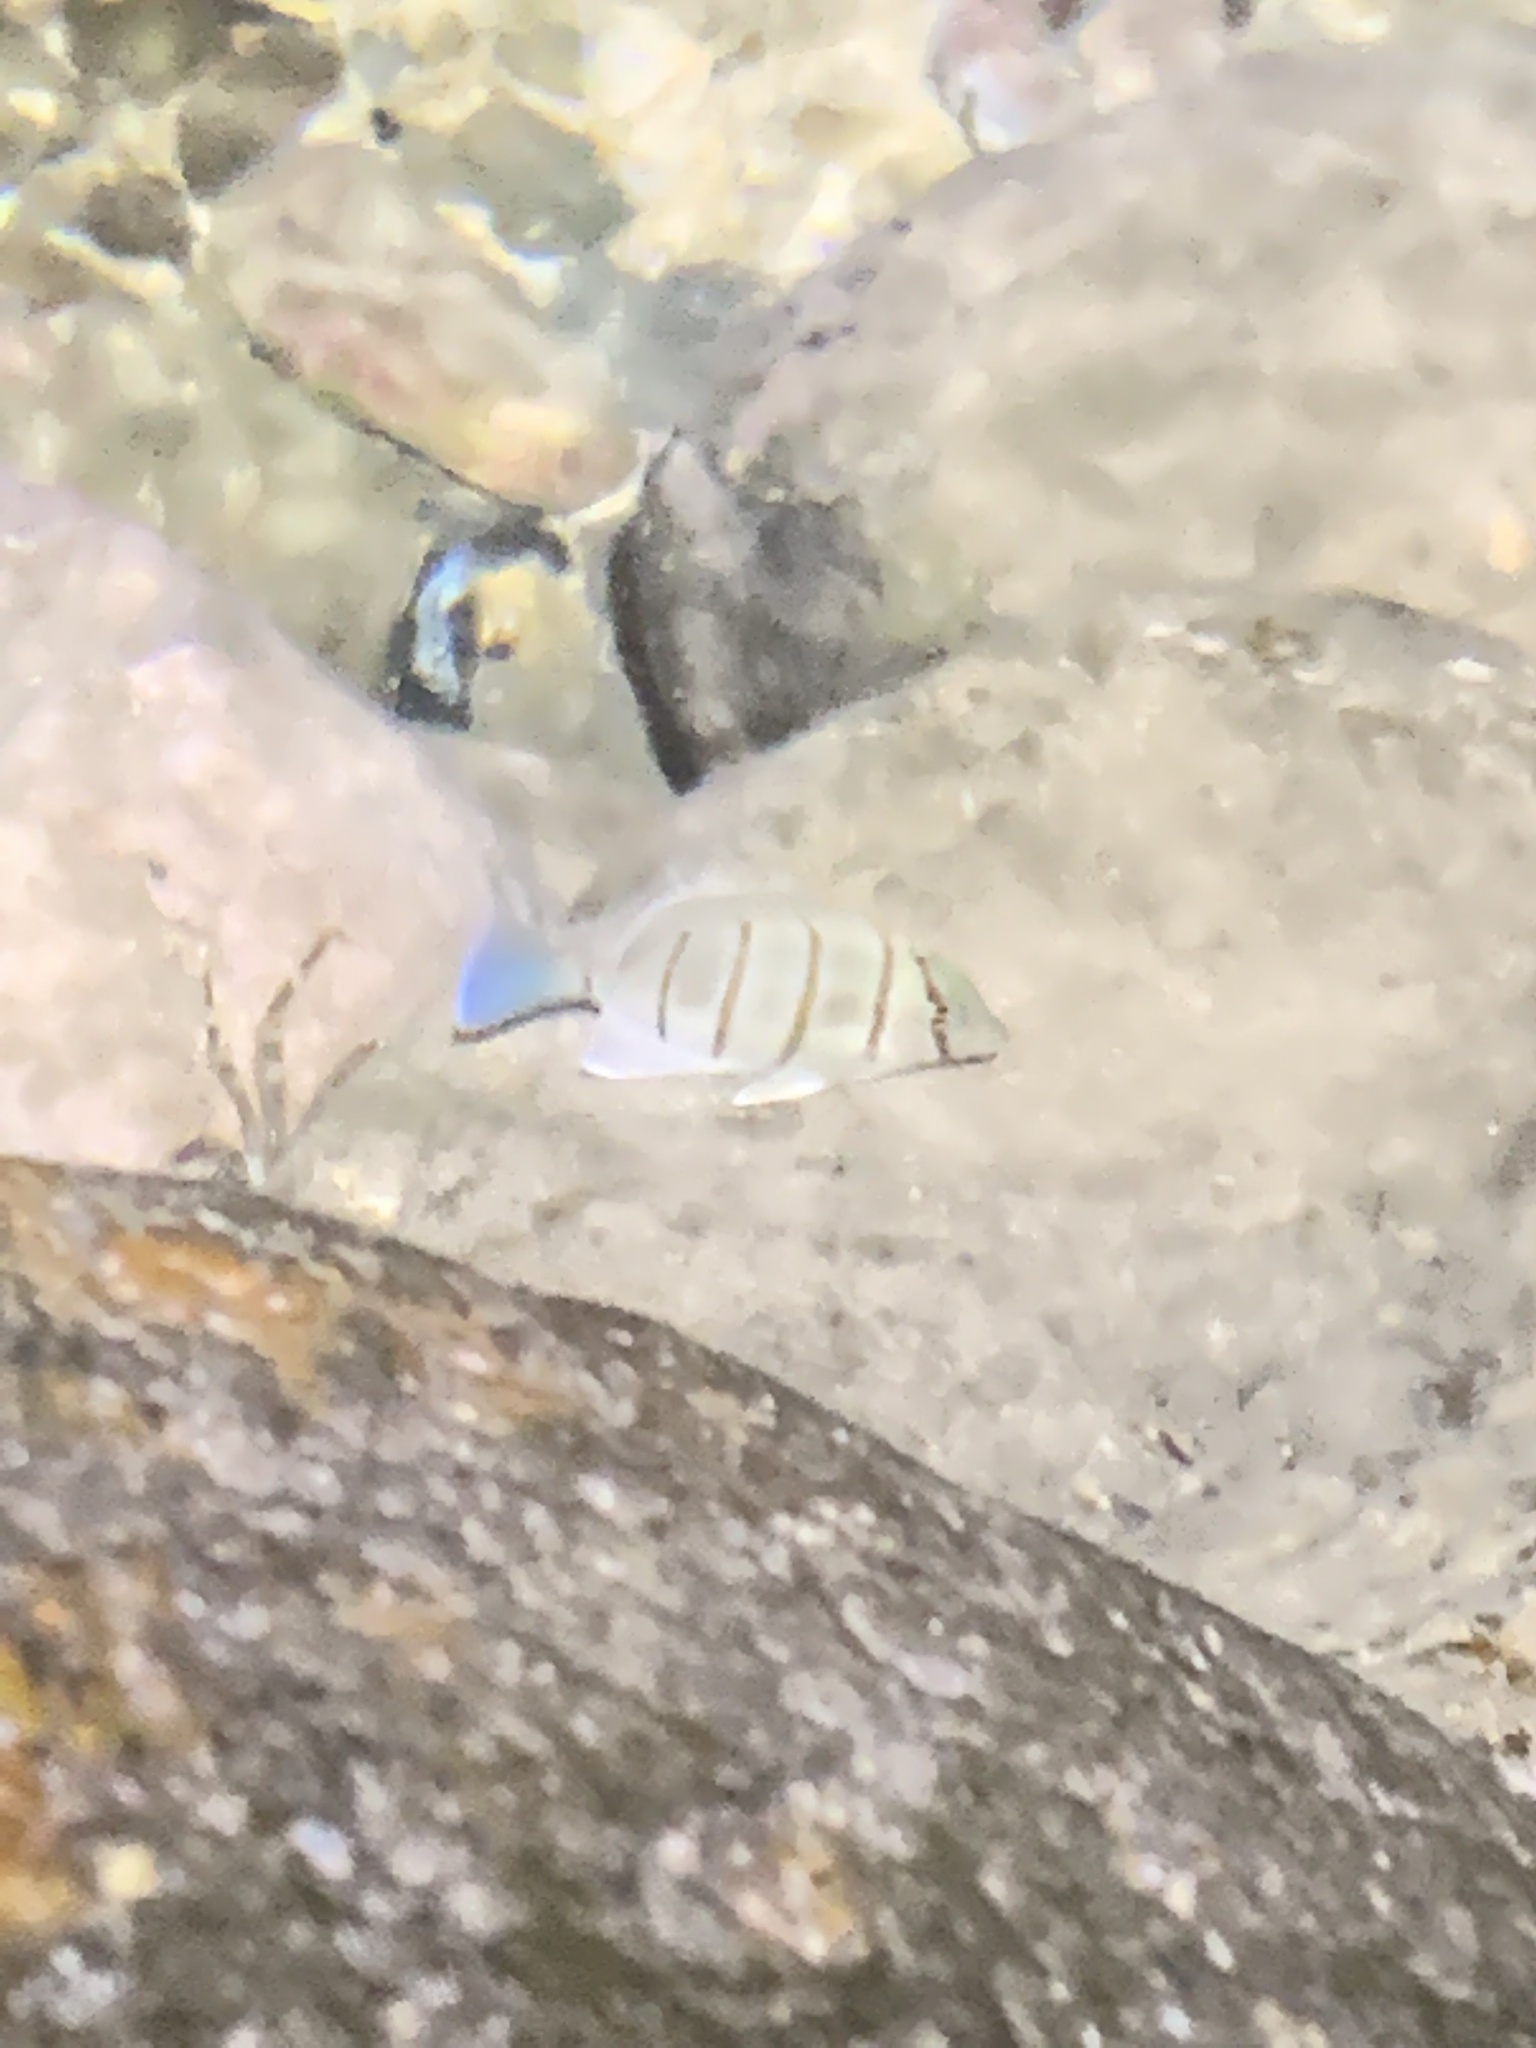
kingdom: Animalia
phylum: Chordata
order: Perciformes
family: Acanthuridae
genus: Acanthurus
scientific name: Acanthurus triostegus
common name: Convict surgeonfish
